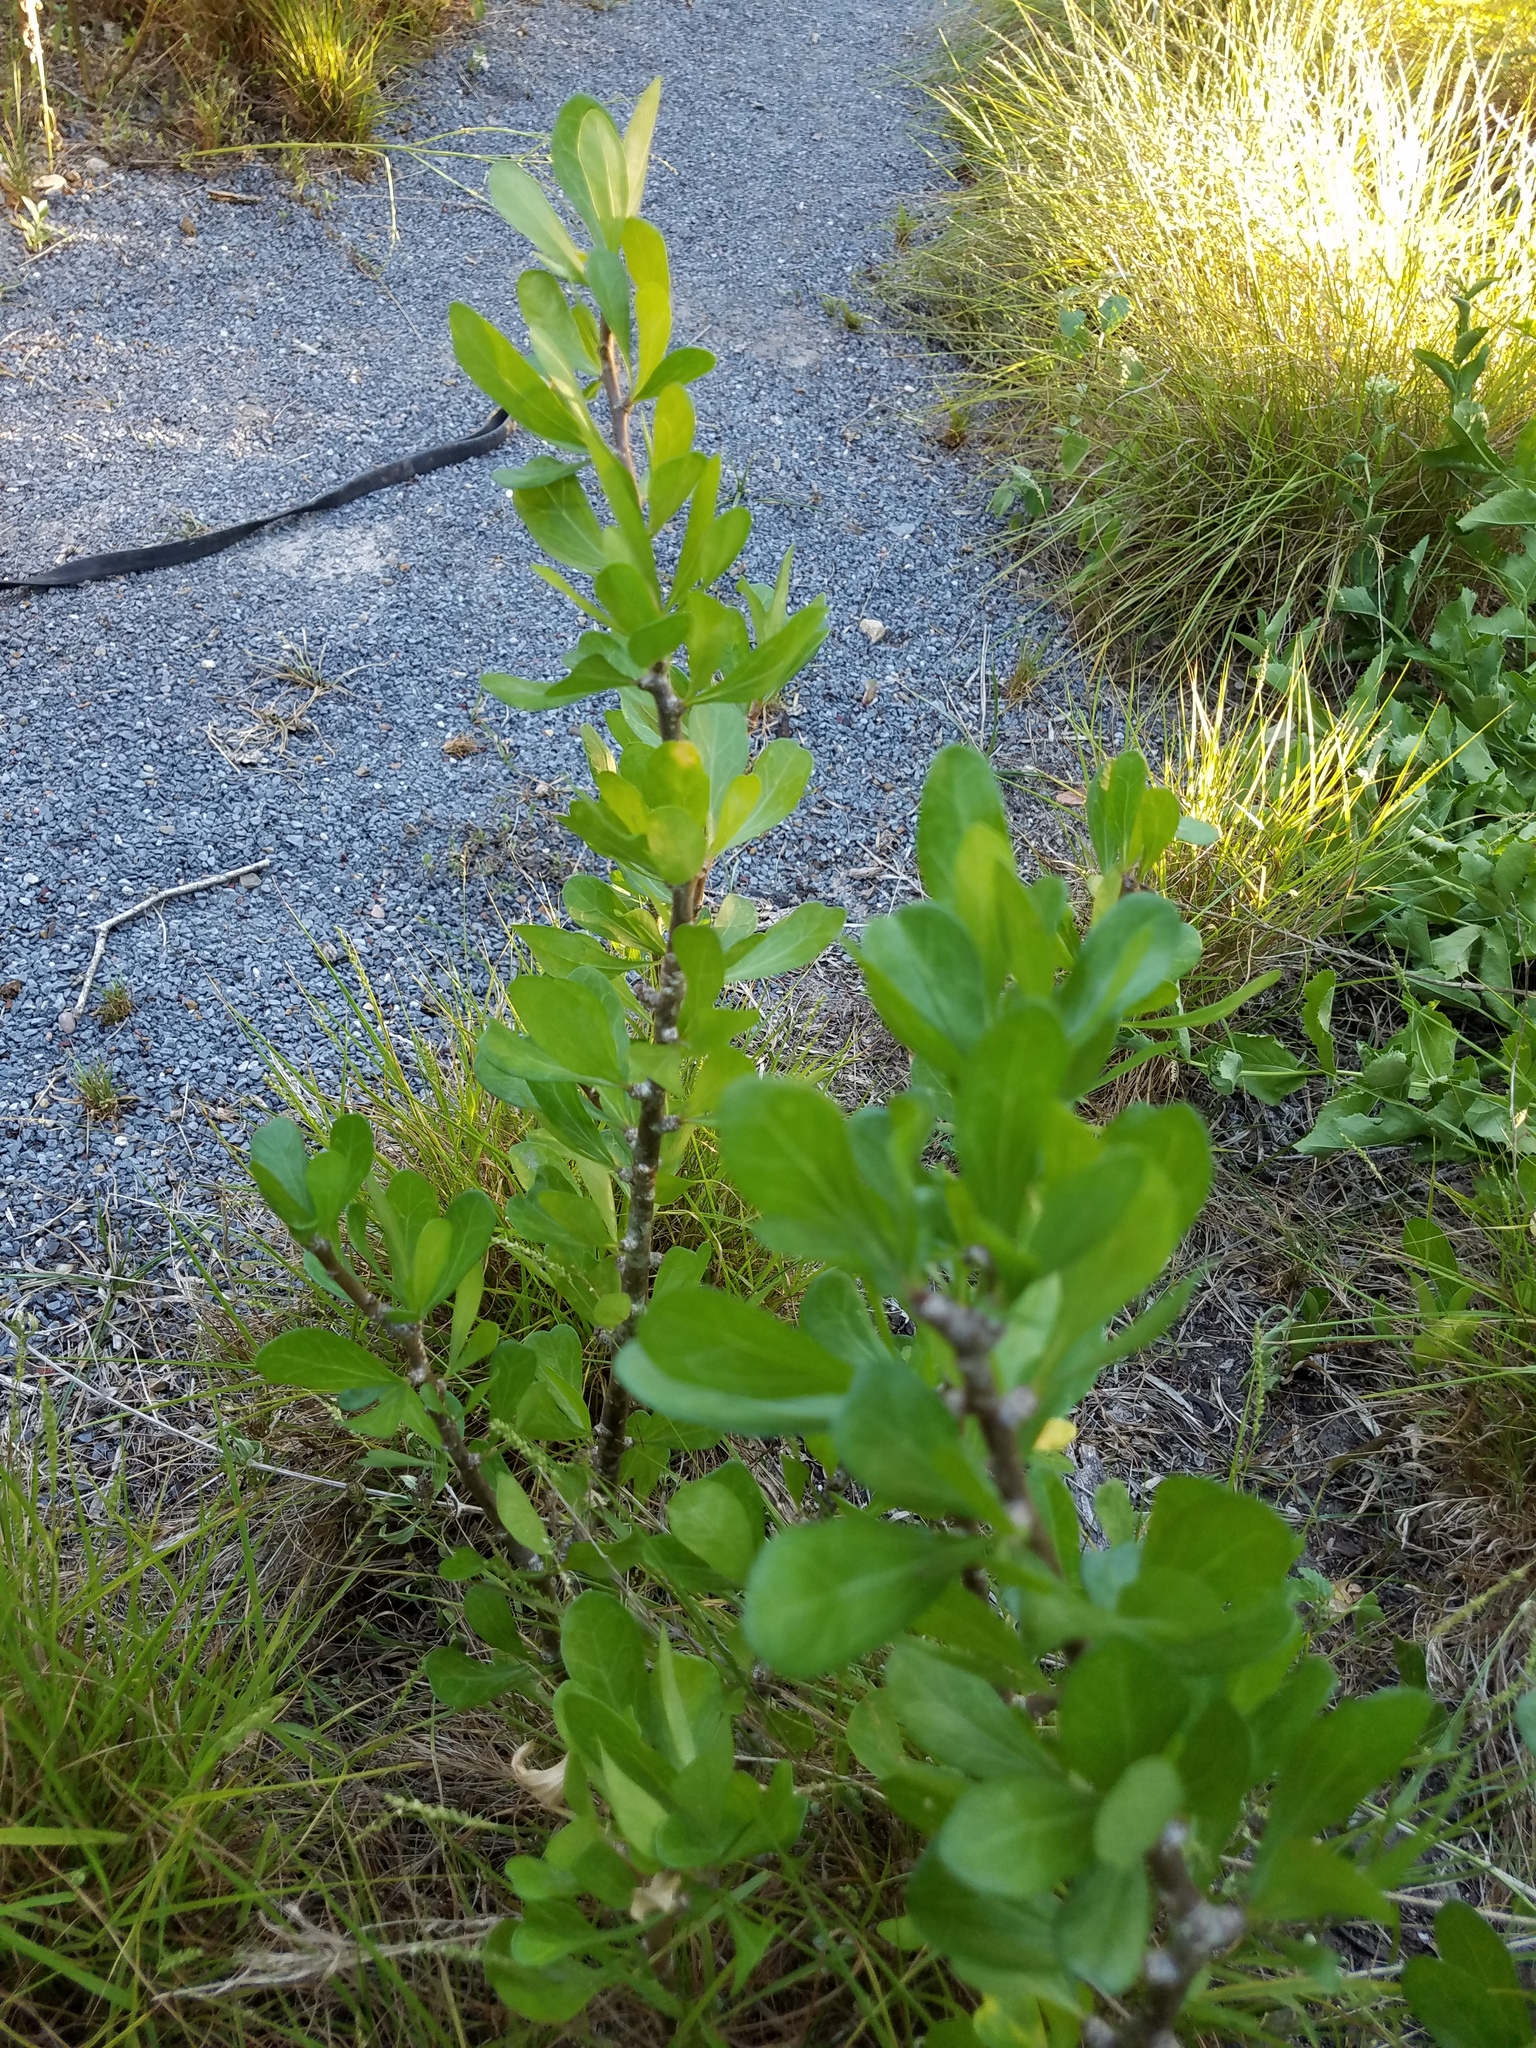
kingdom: Plantae
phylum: Tracheophyta
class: Magnoliopsida
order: Malpighiales
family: Euphorbiaceae
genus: Jatropha
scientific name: Jatropha dioica
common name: Leatherstem
